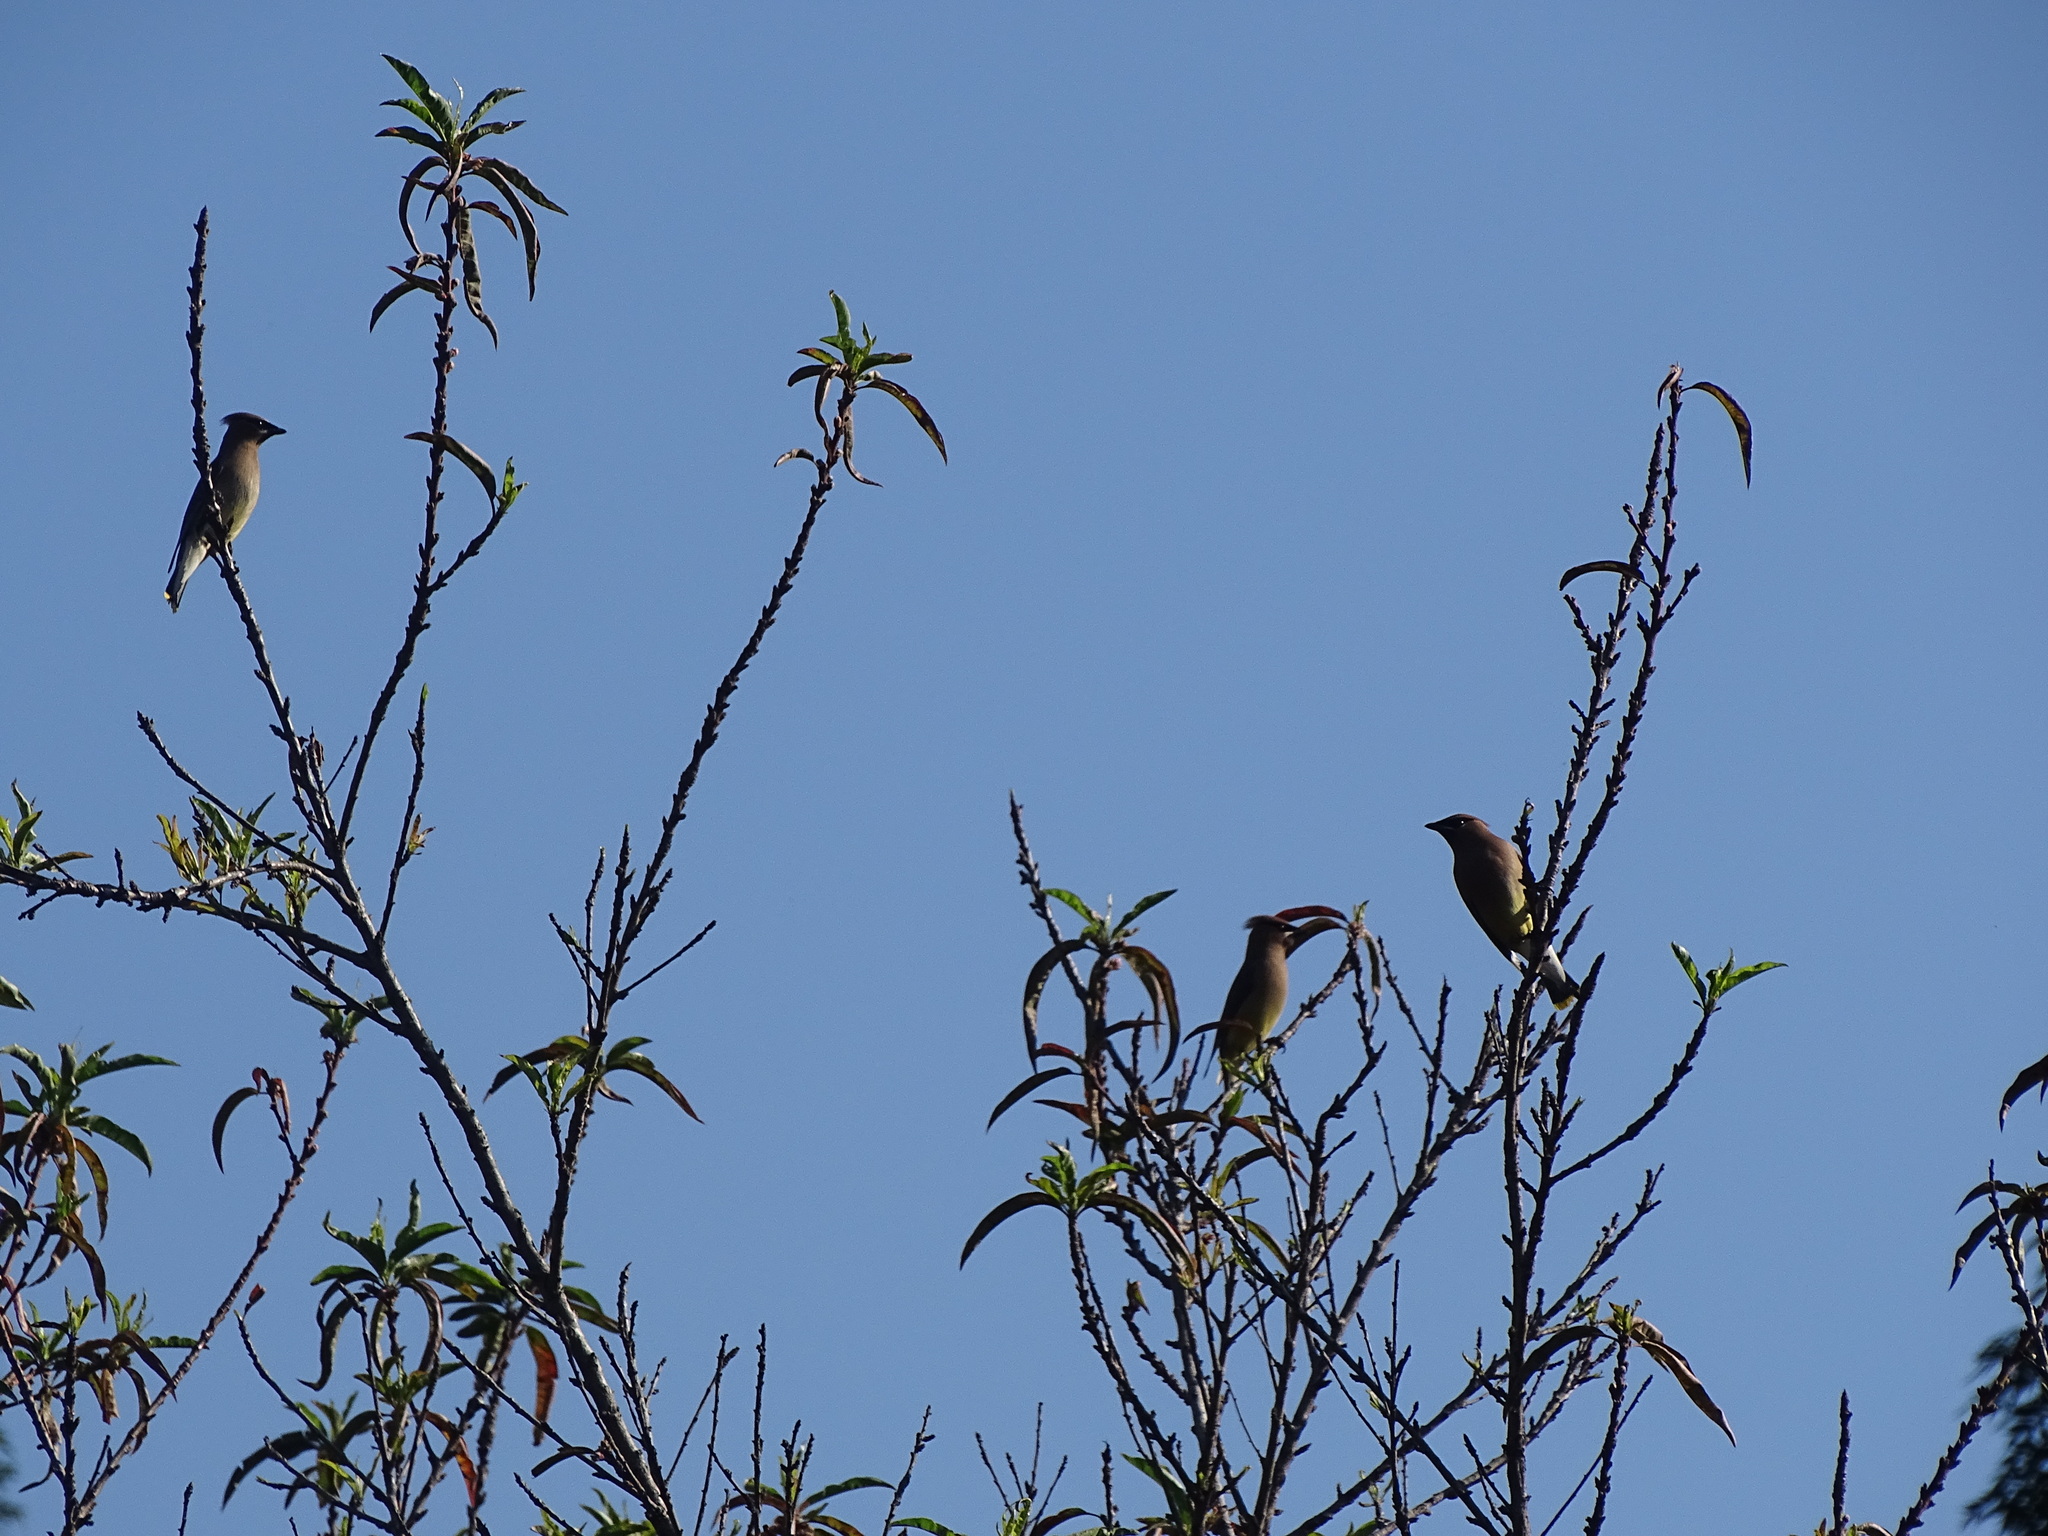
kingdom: Animalia
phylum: Chordata
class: Aves
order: Passeriformes
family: Bombycillidae
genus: Bombycilla
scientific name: Bombycilla cedrorum
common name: Cedar waxwing
